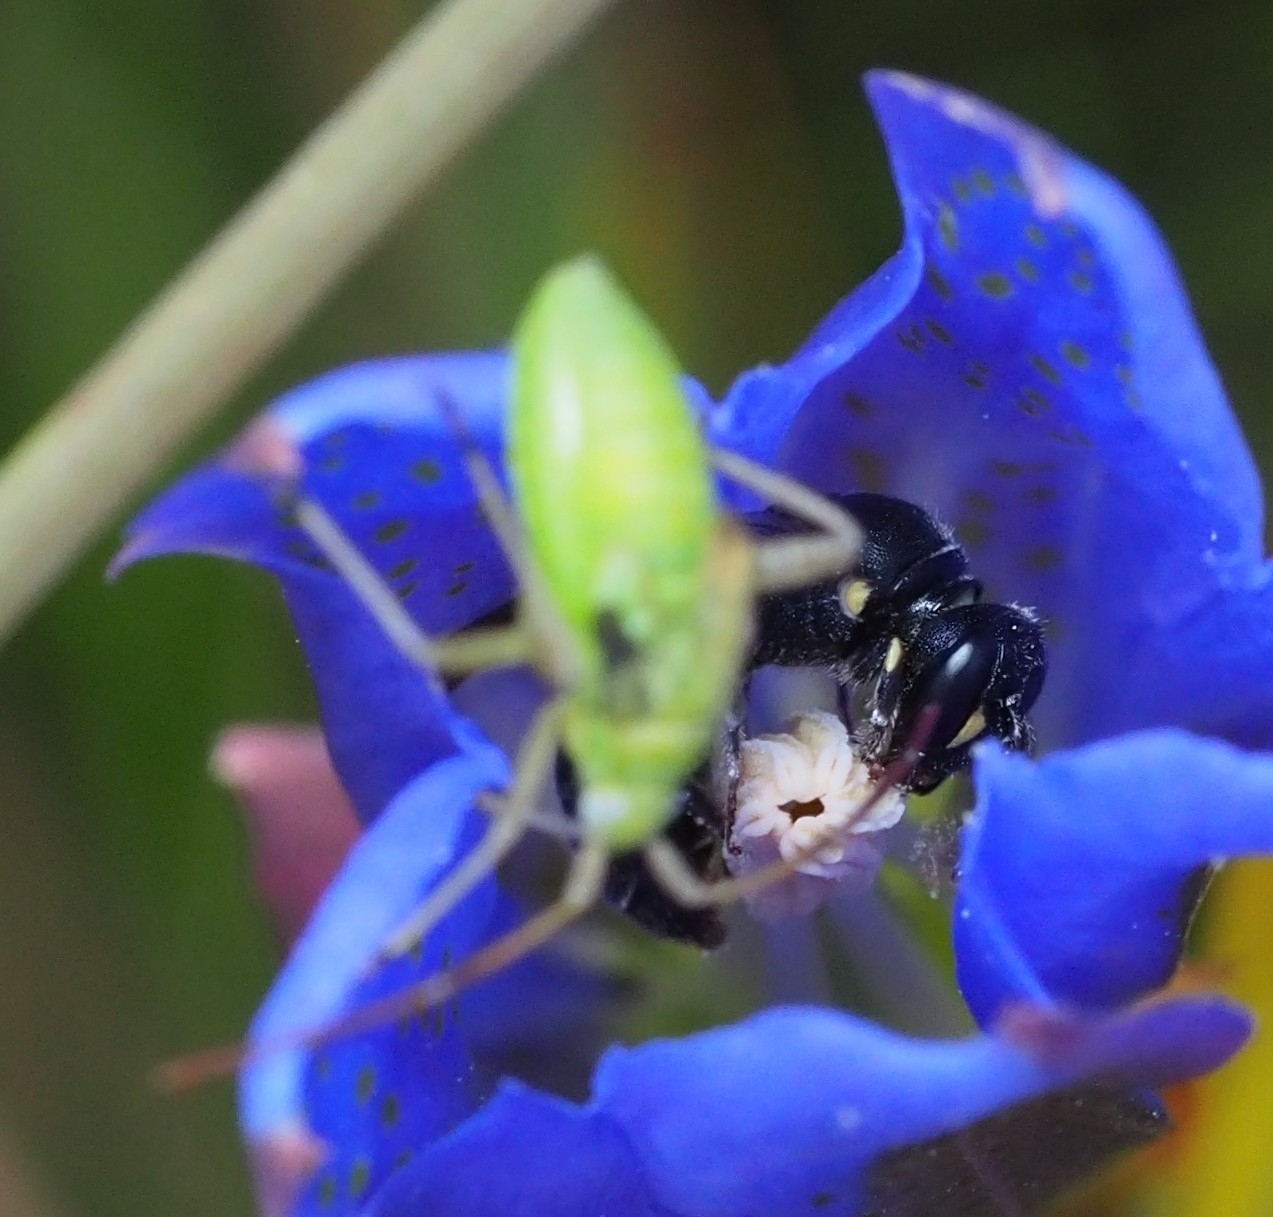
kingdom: Animalia
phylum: Arthropoda
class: Insecta
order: Hymenoptera
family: Colletidae
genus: Hylaeus
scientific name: Hylaeus communis
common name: Common yellow-face bee
